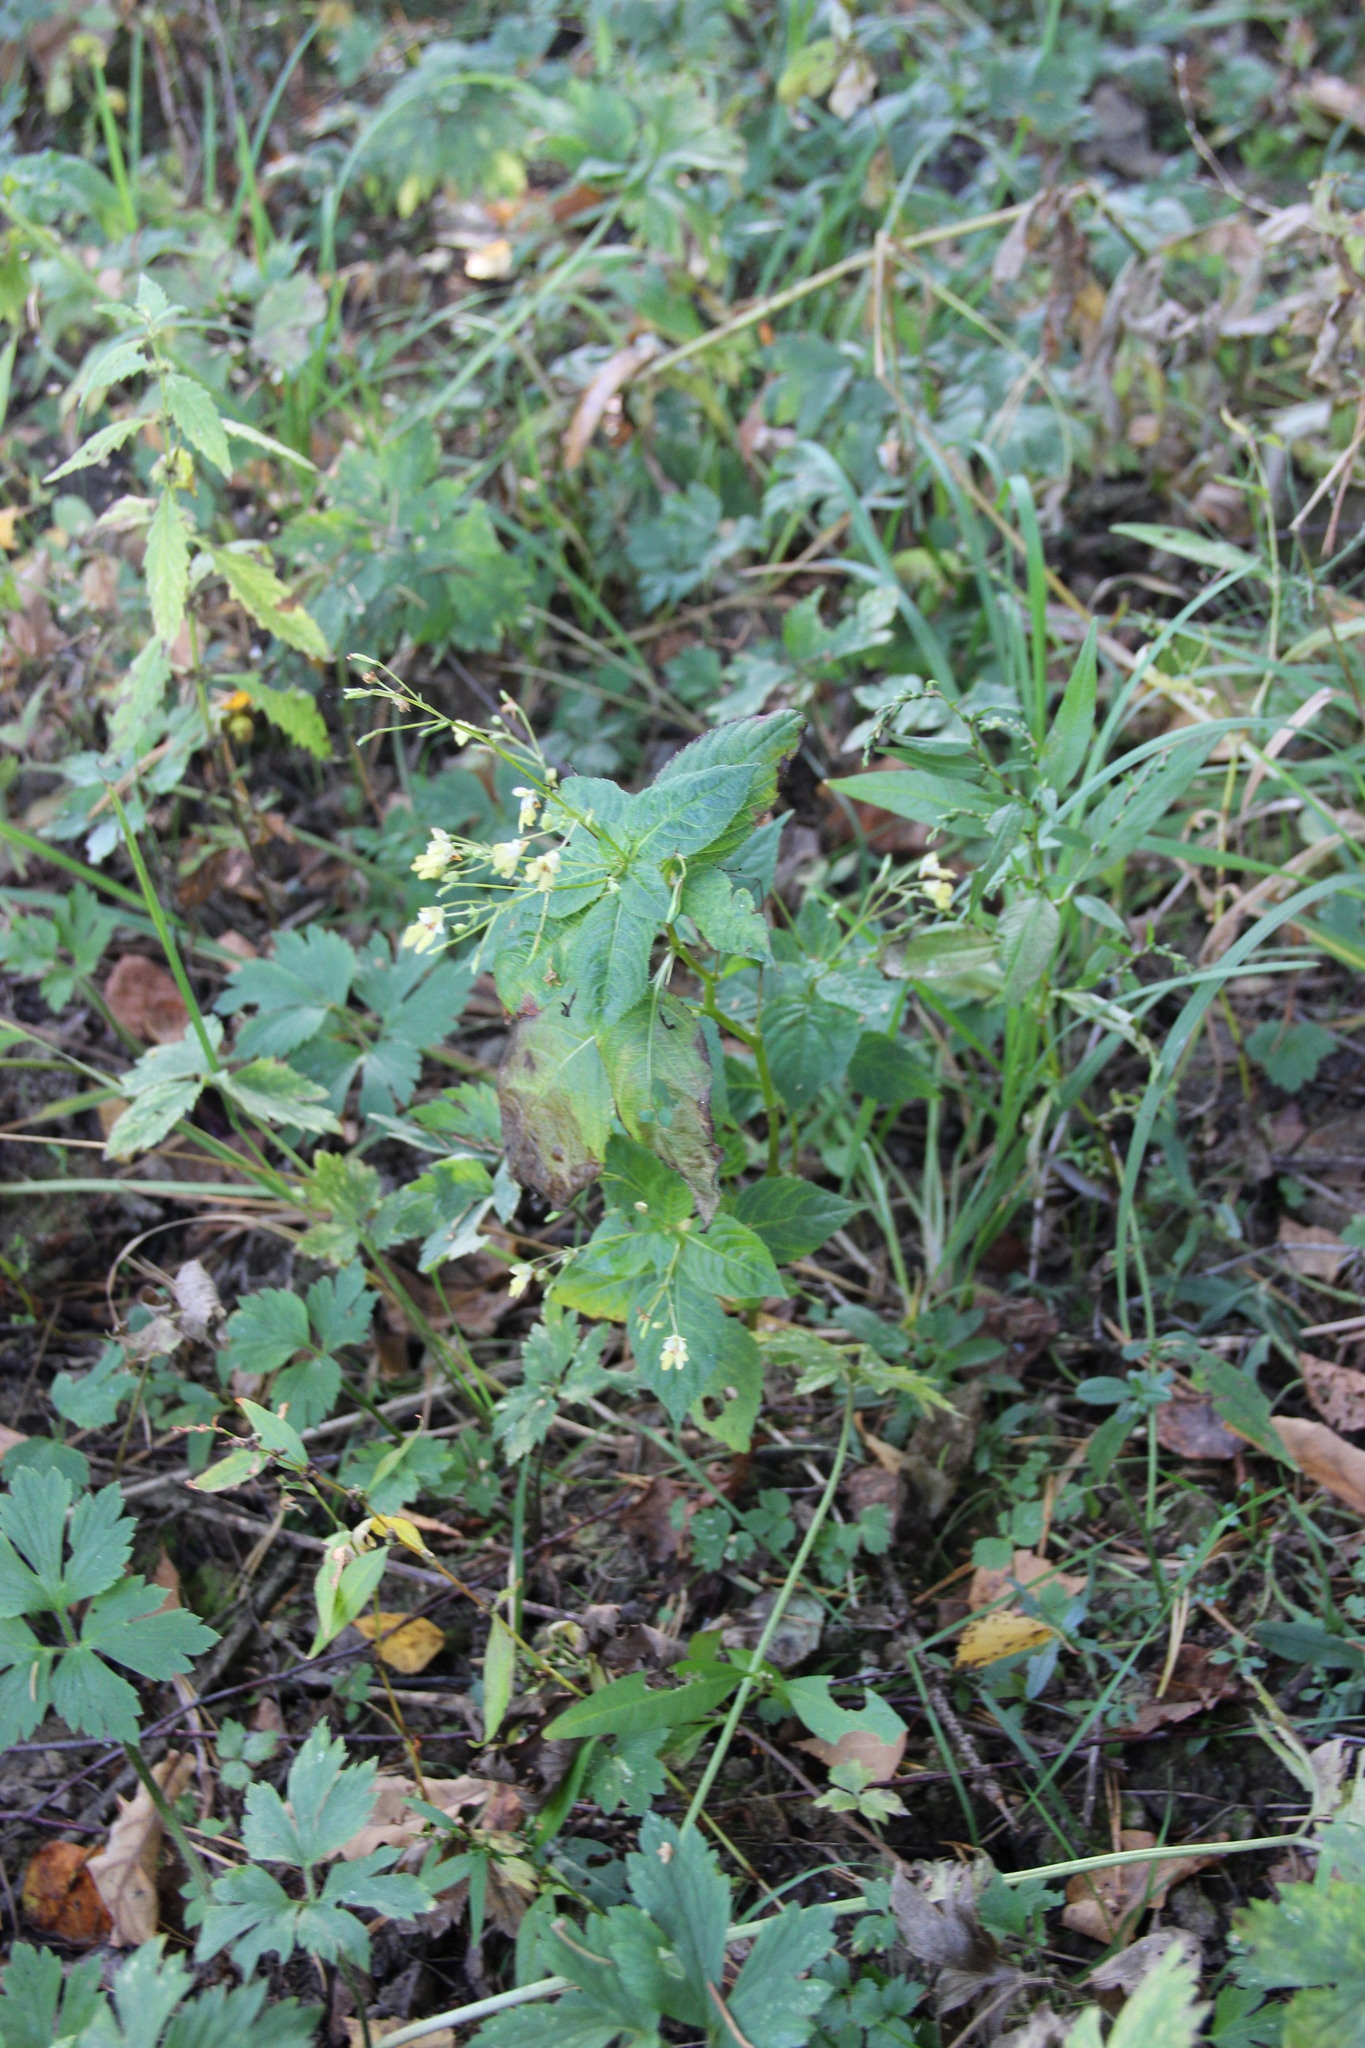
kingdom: Plantae
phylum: Tracheophyta
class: Magnoliopsida
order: Ericales
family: Balsaminaceae
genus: Impatiens
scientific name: Impatiens parviflora
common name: Small balsam
